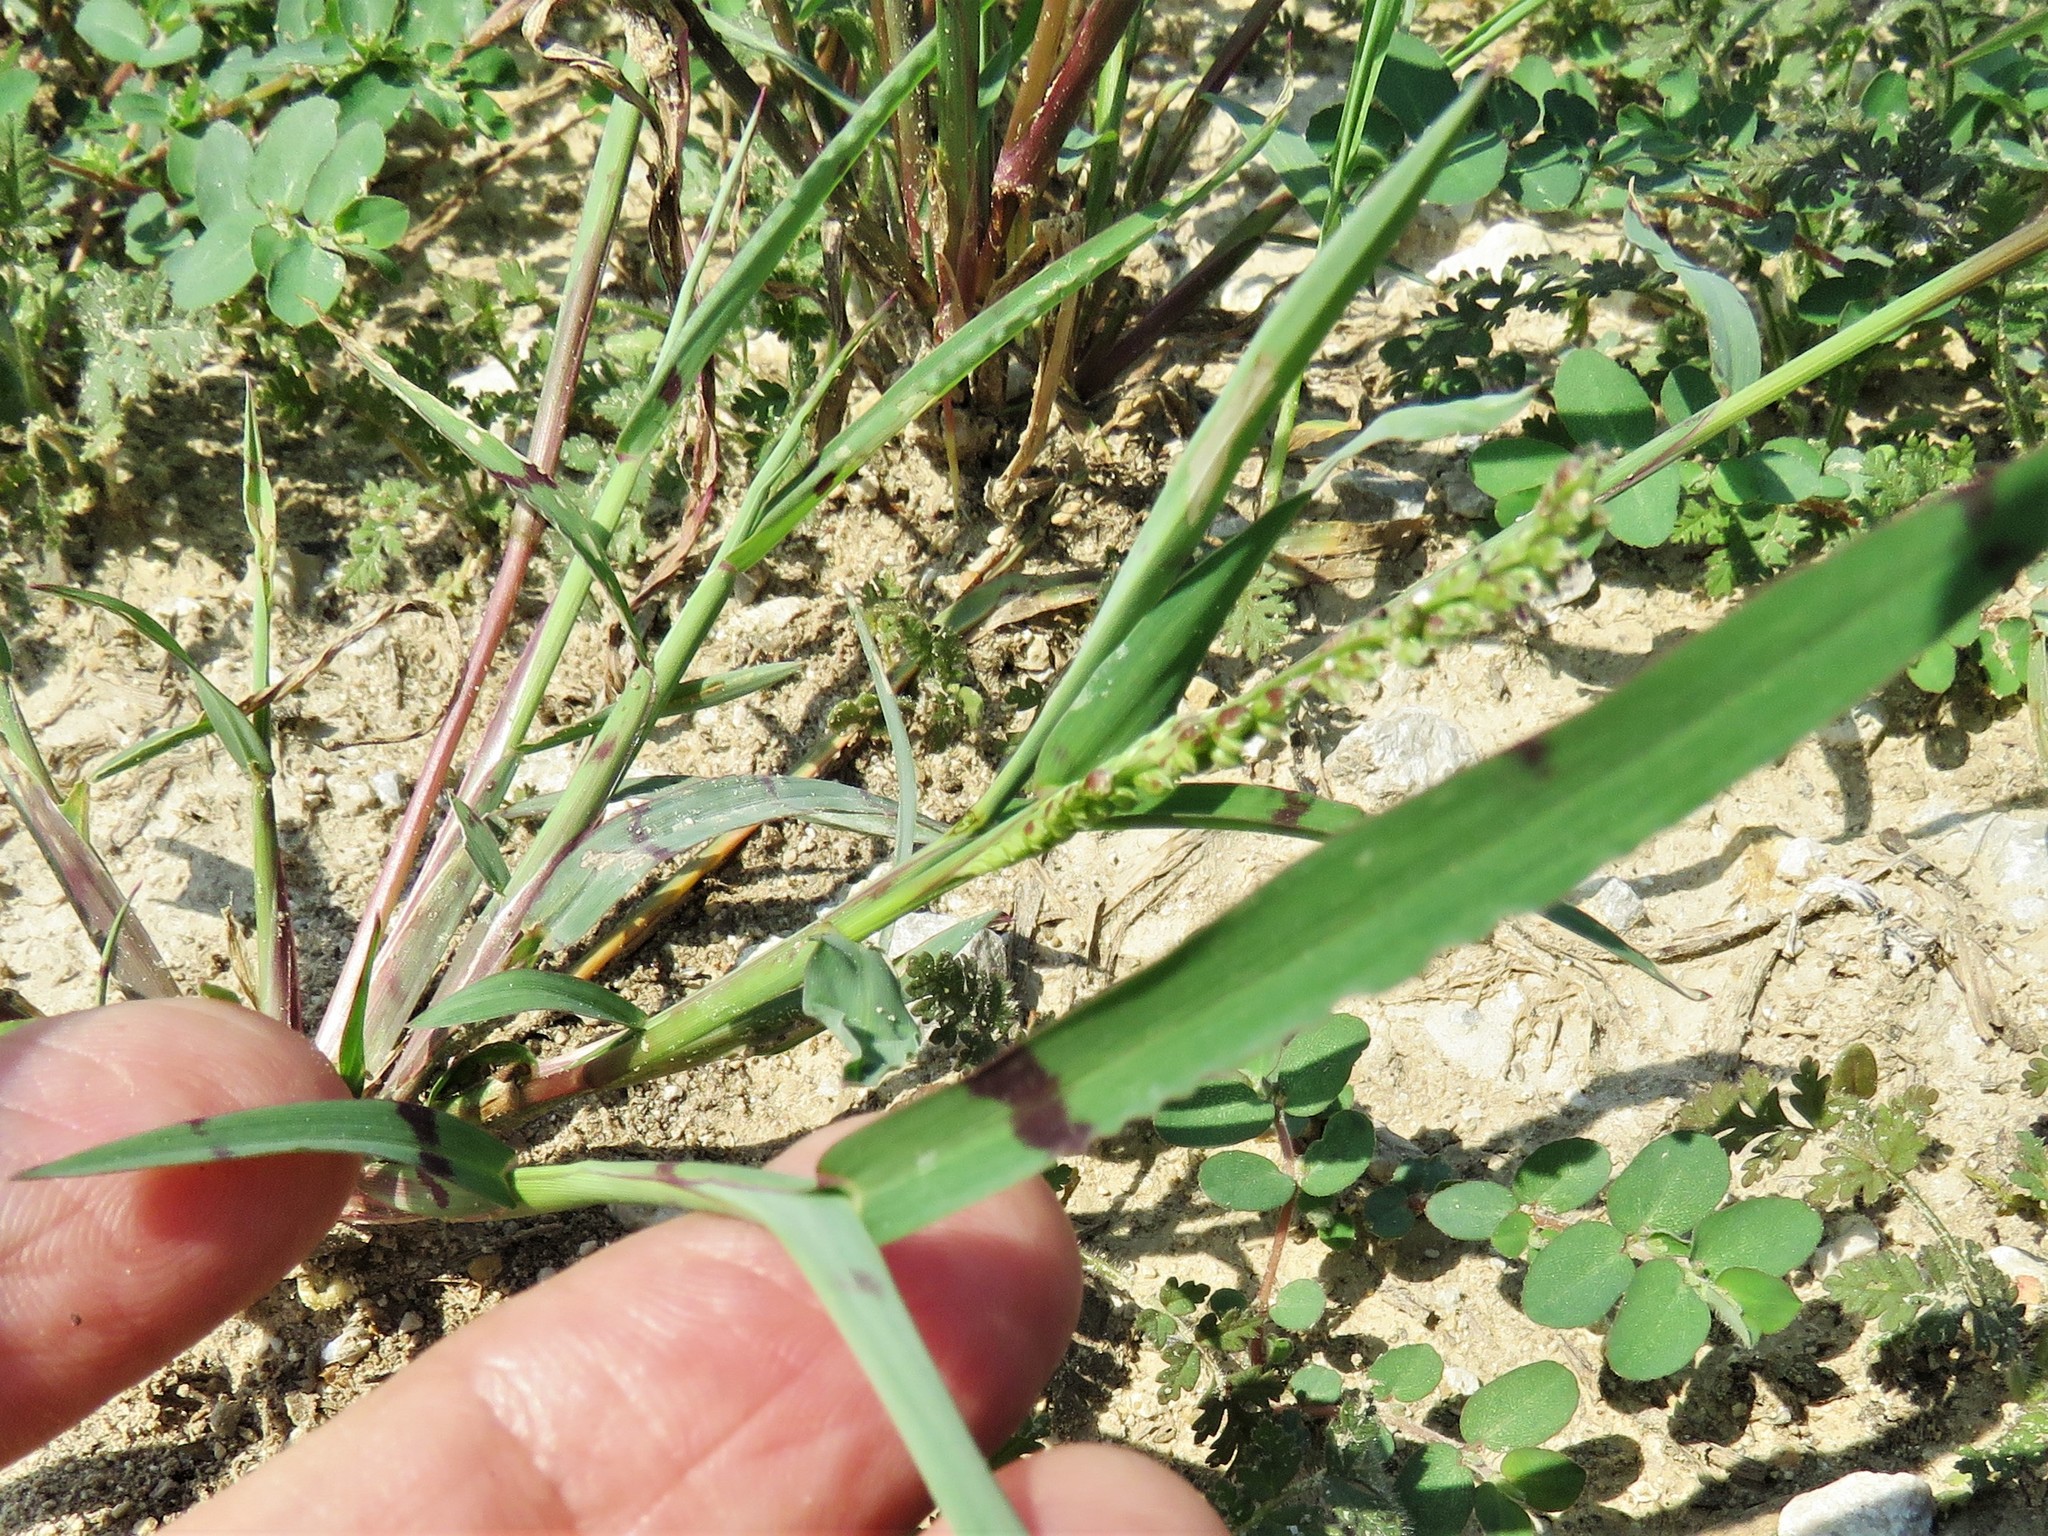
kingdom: Plantae
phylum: Tracheophyta
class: Liliopsida
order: Poales
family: Poaceae
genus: Echinochloa
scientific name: Echinochloa colonum
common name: Jungle rice
